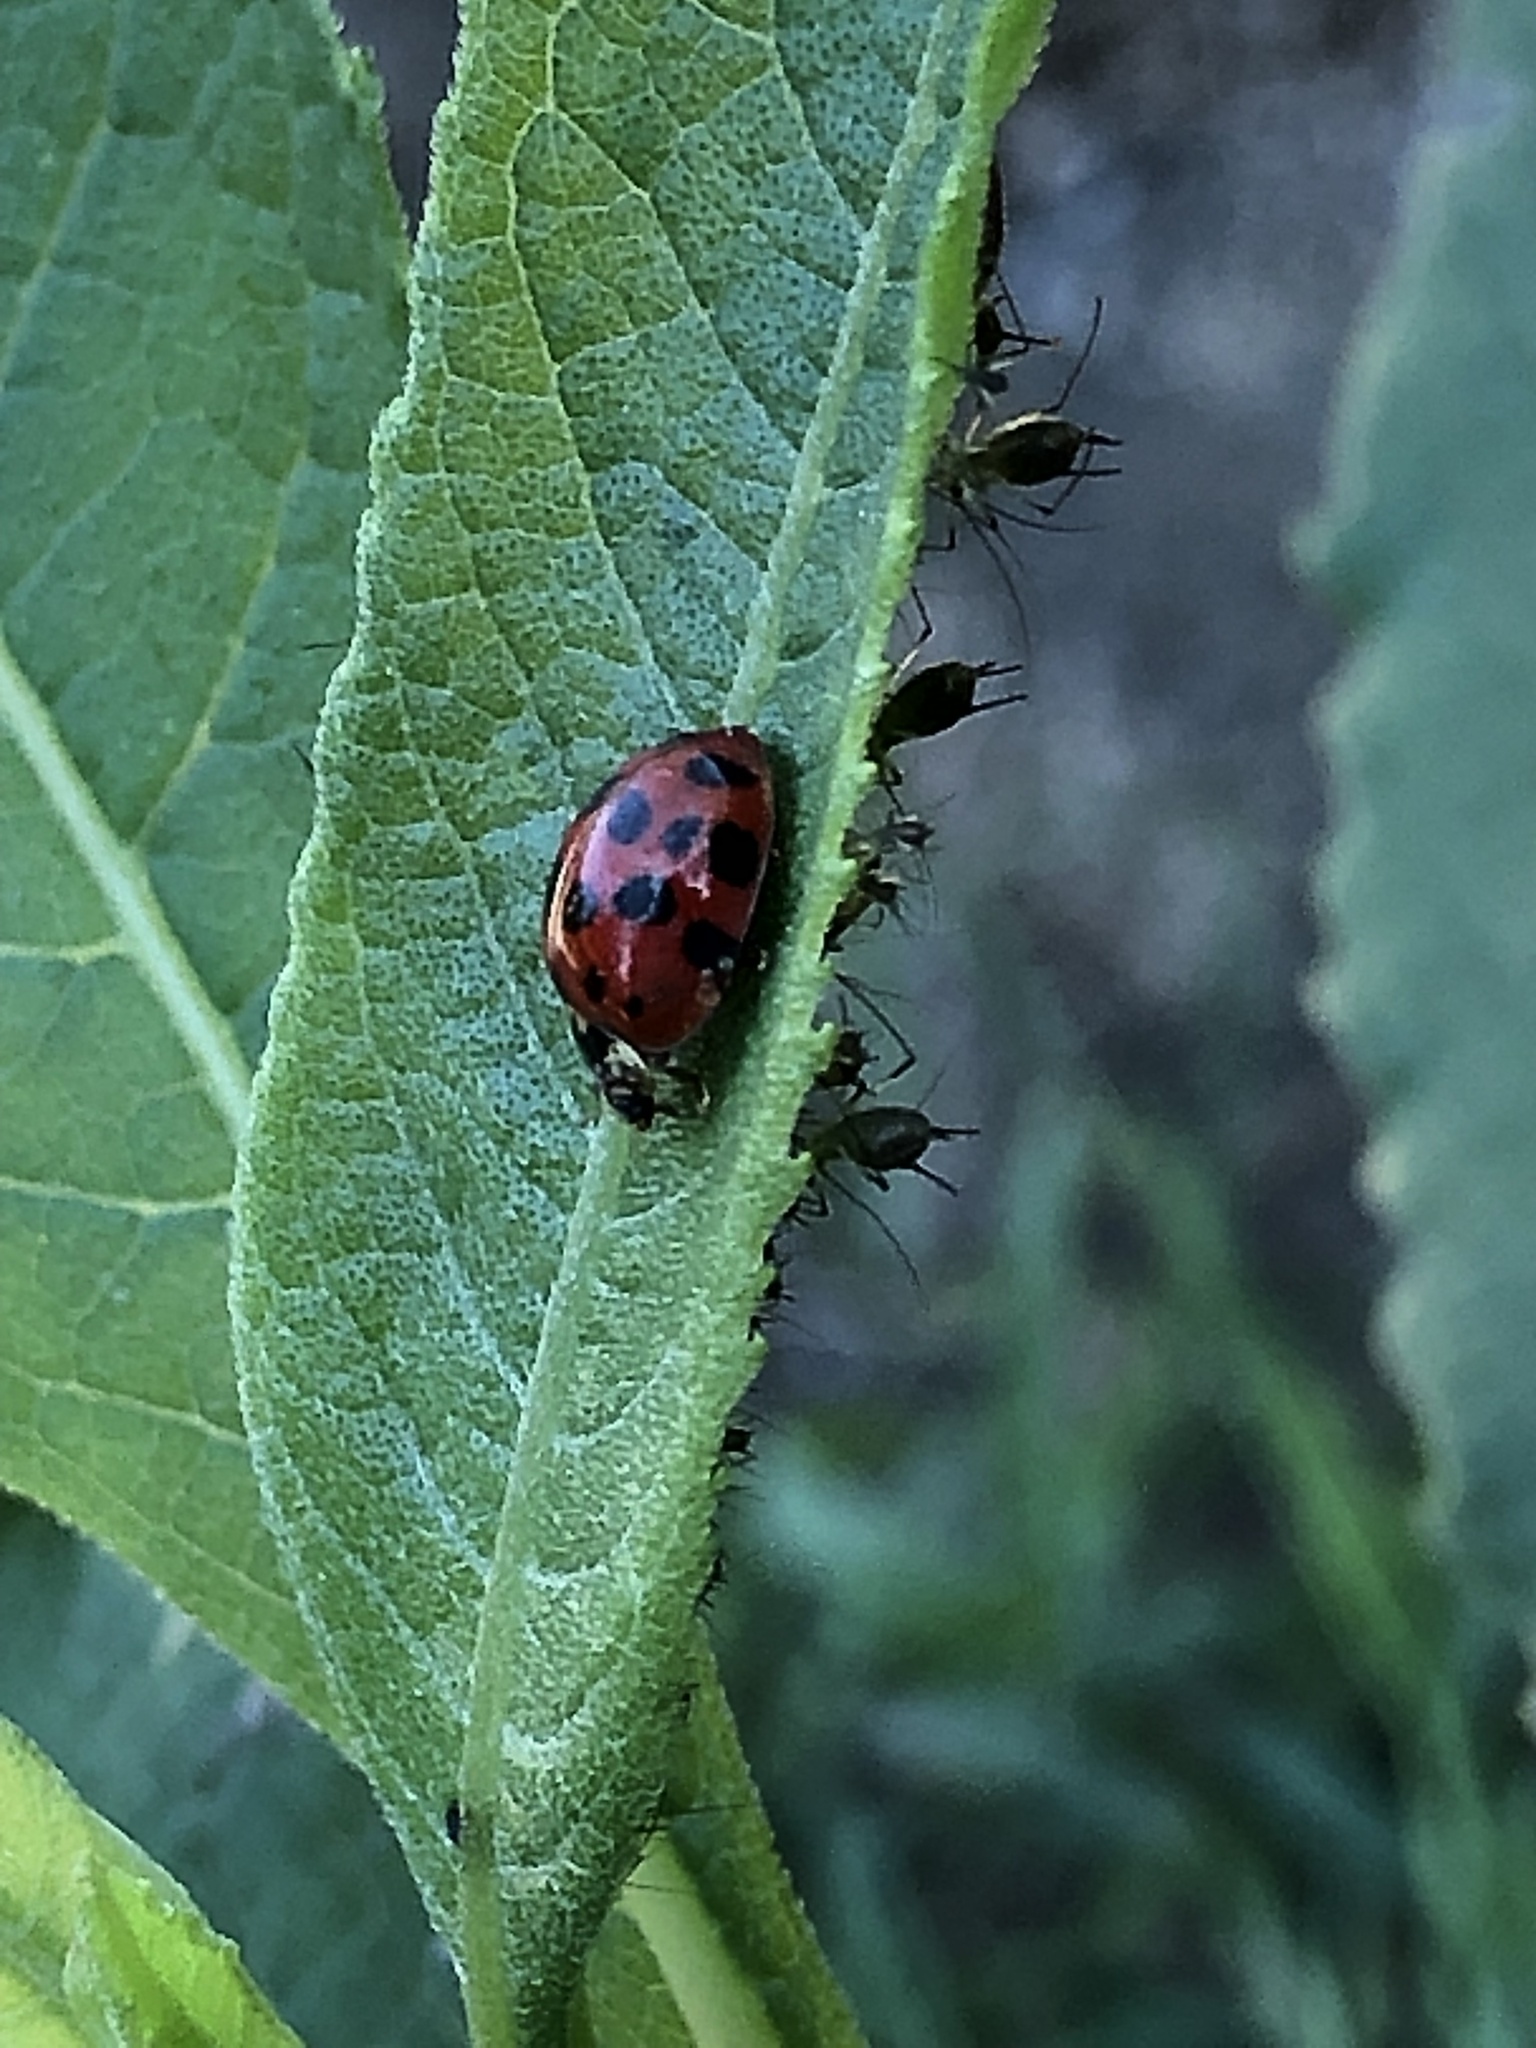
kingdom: Animalia
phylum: Arthropoda
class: Insecta
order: Coleoptera
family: Coccinellidae
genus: Harmonia
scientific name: Harmonia axyridis
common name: Harlequin ladybird
